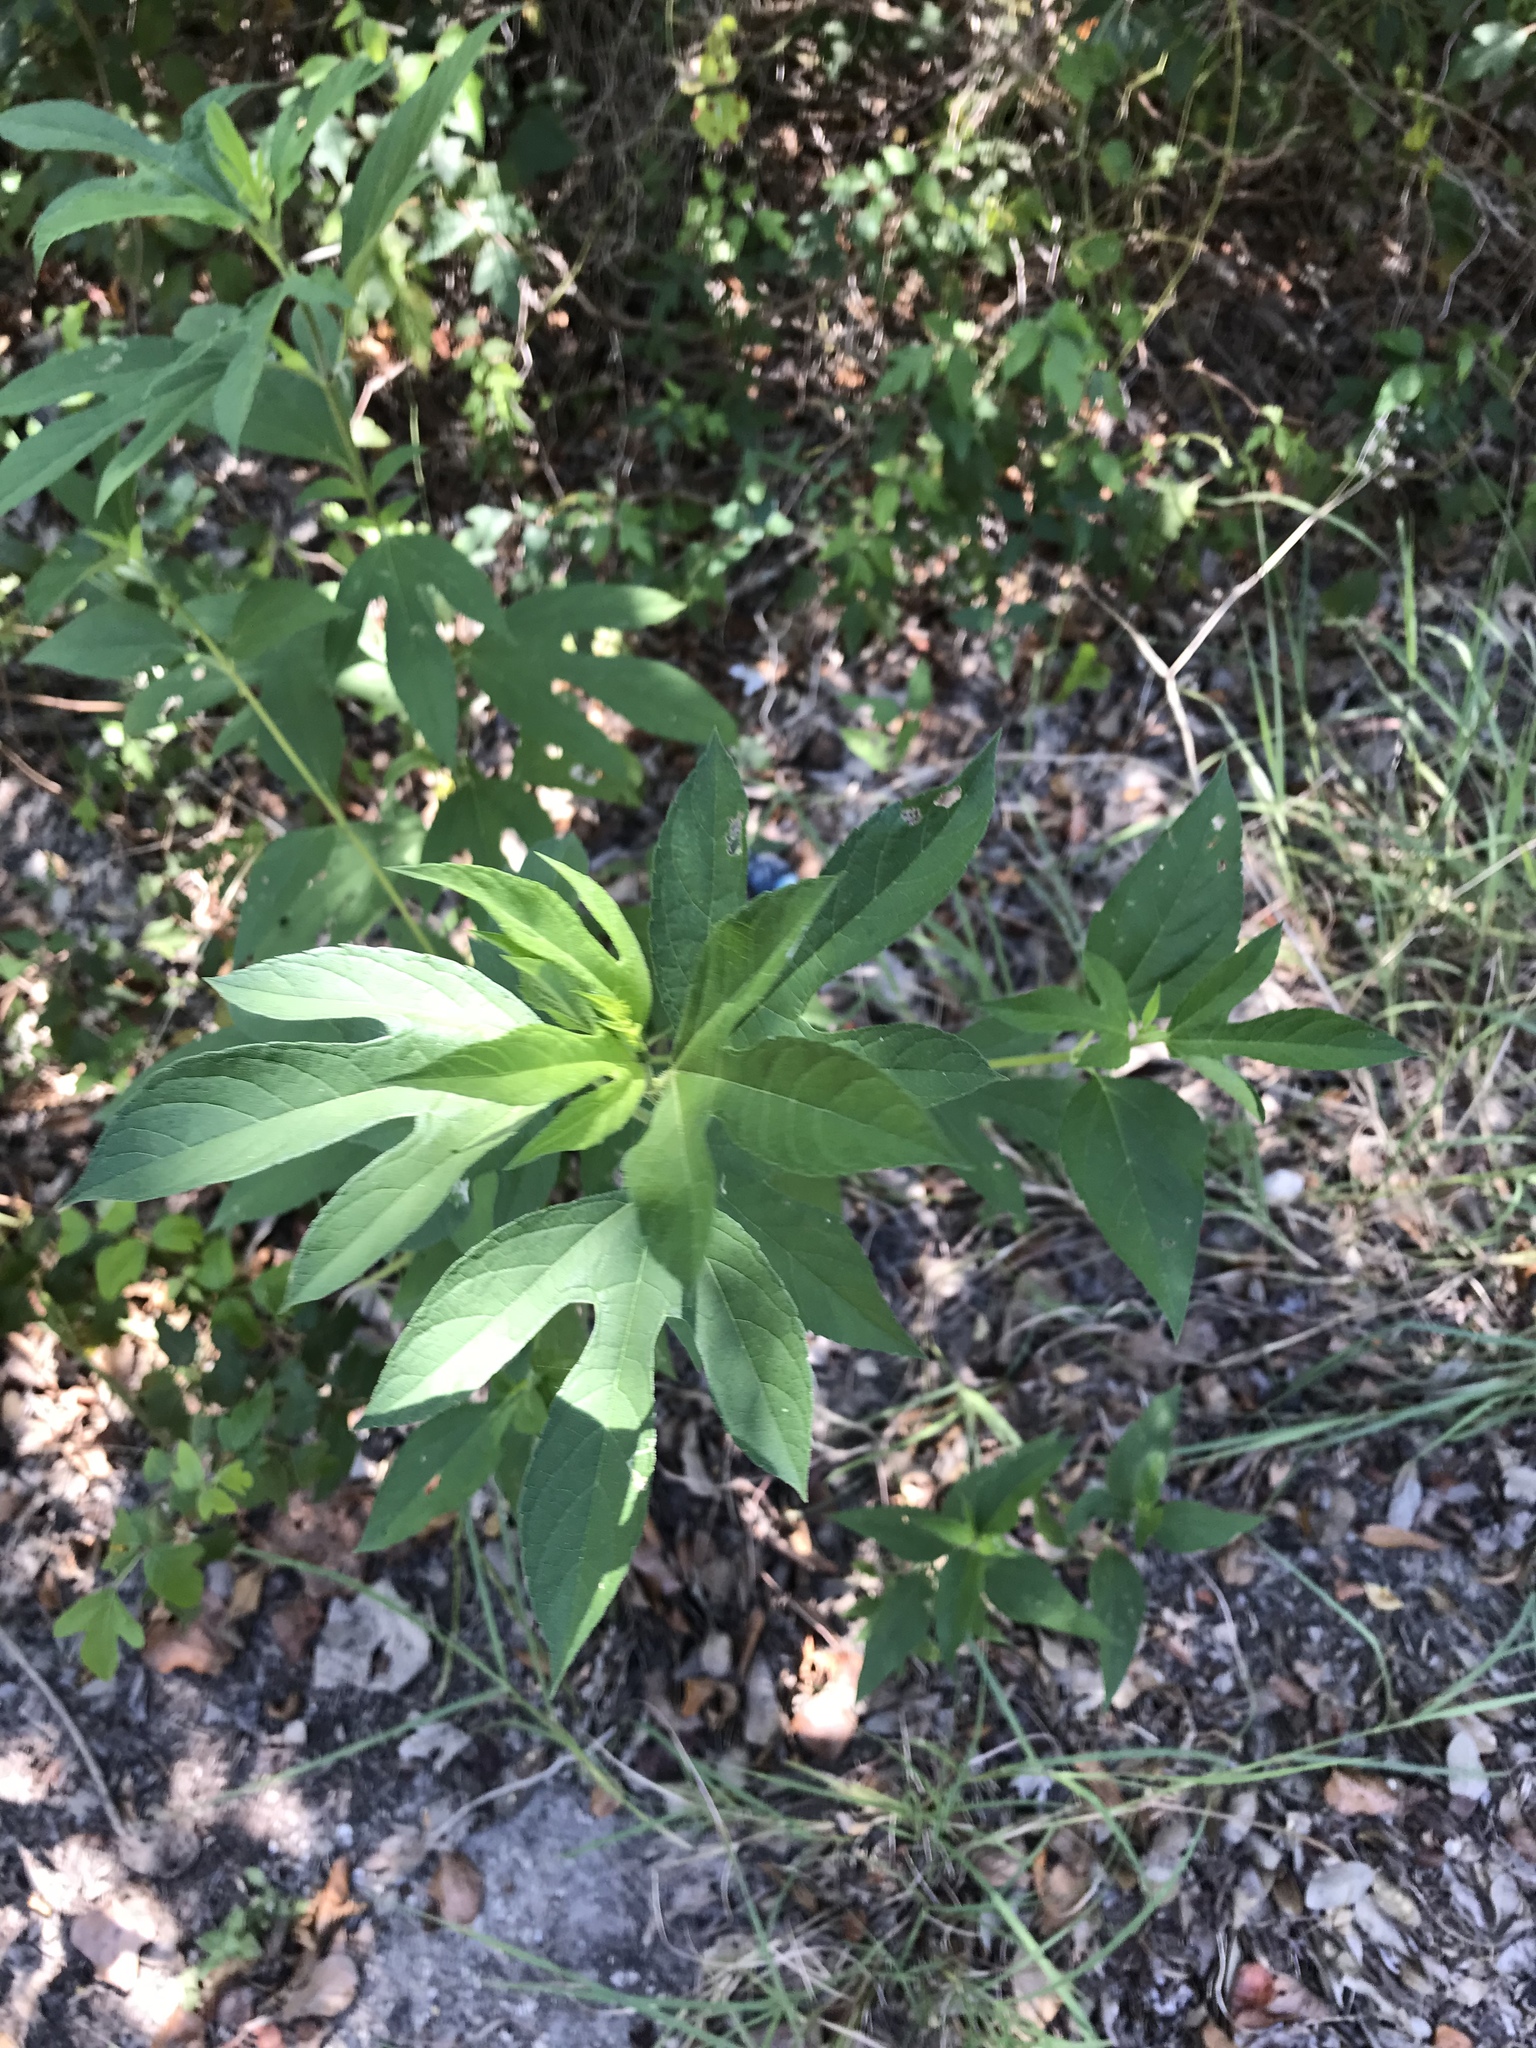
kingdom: Plantae
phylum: Tracheophyta
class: Magnoliopsida
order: Asterales
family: Asteraceae
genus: Ambrosia
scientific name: Ambrosia trifida
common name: Giant ragweed
